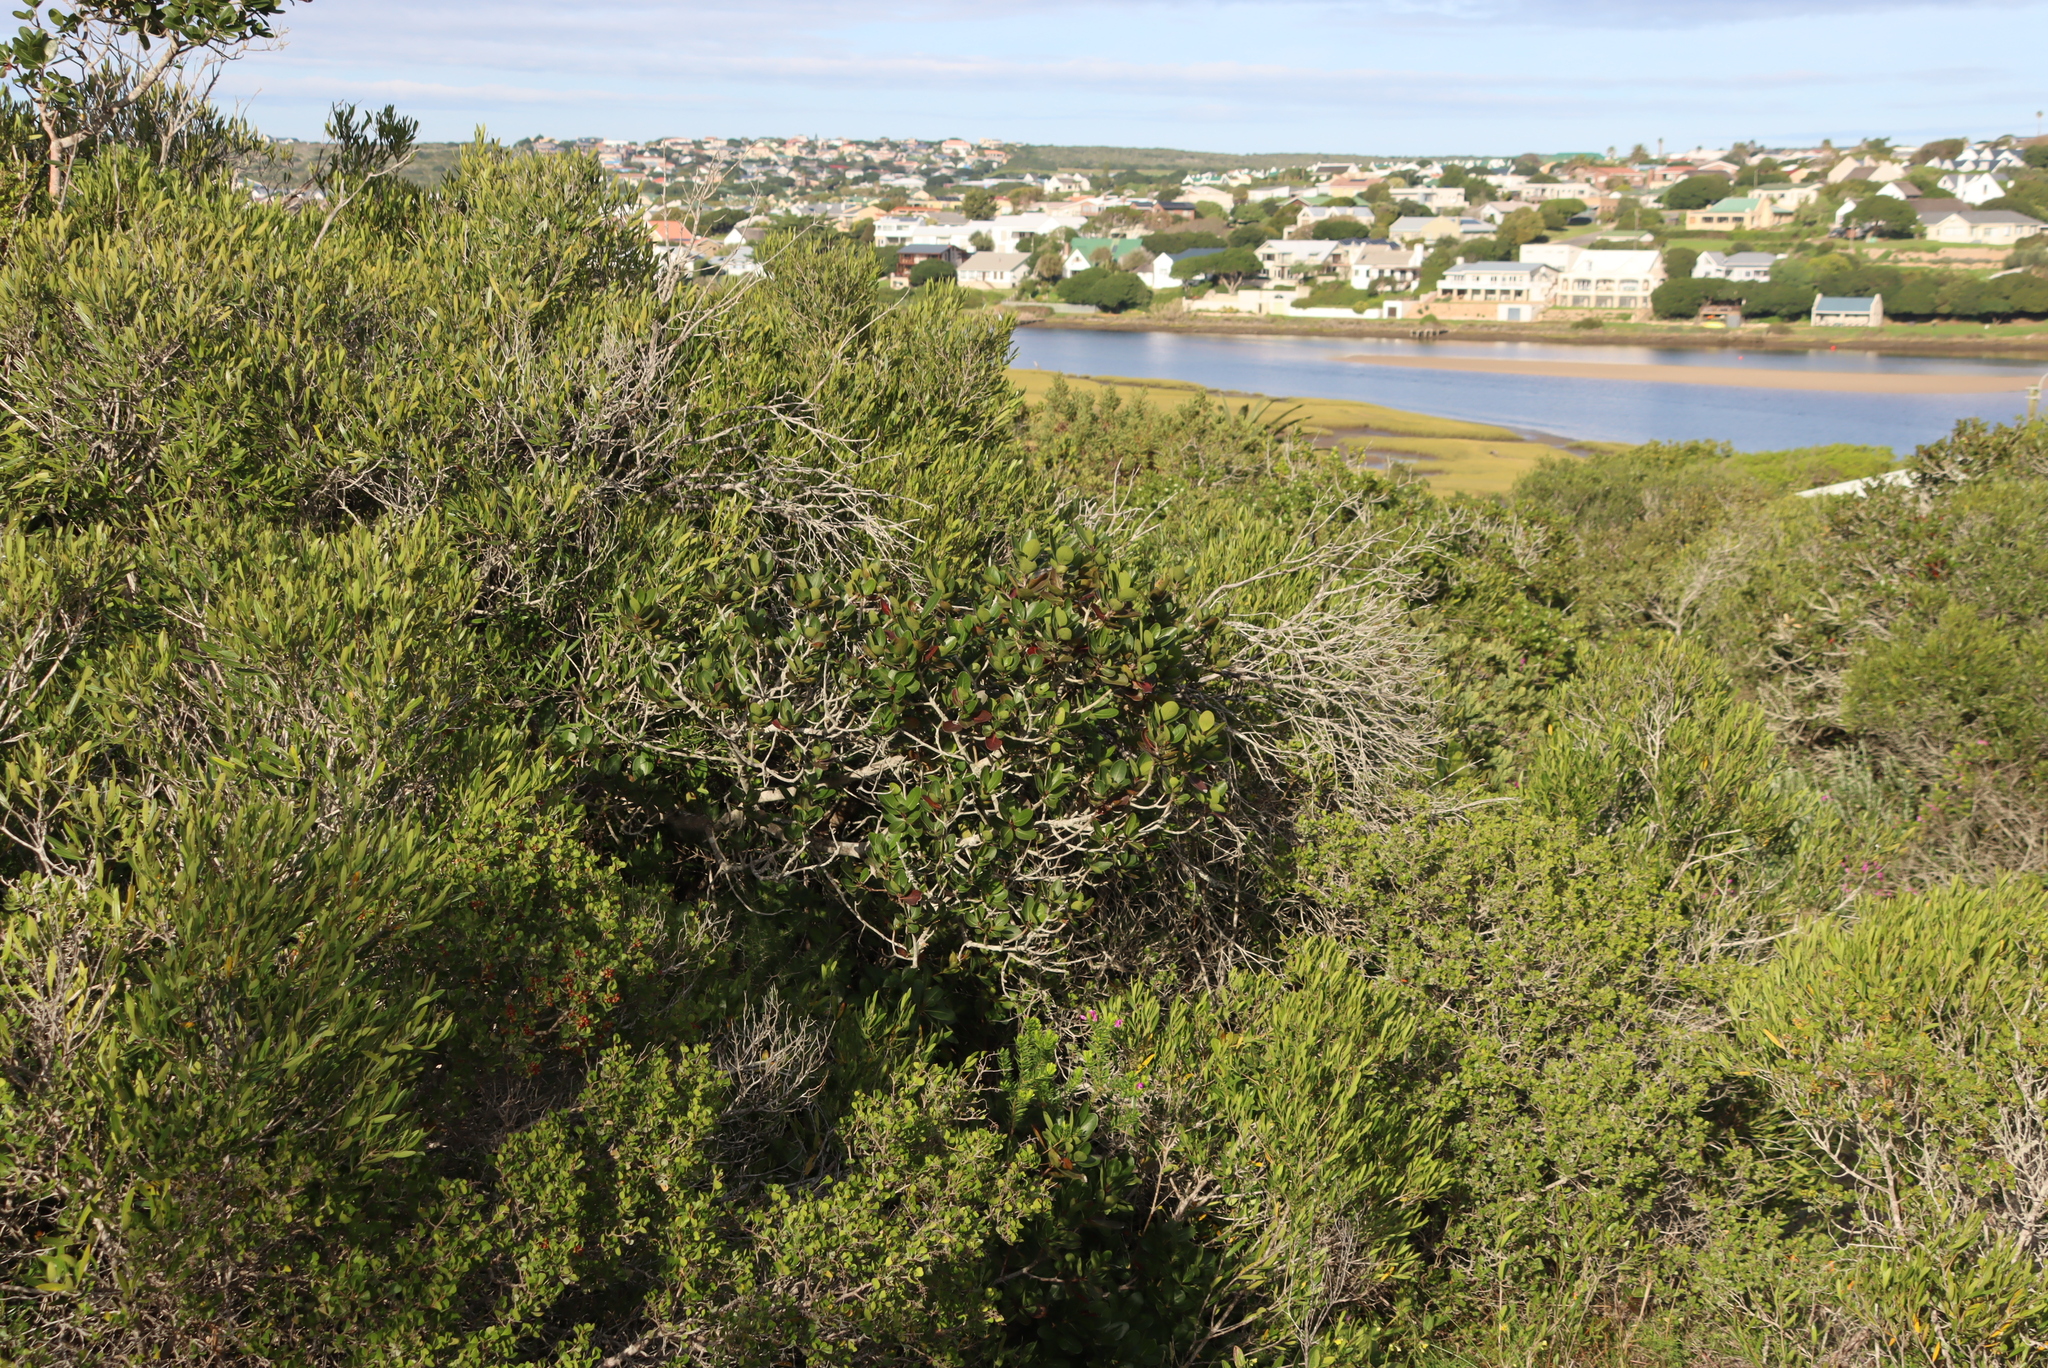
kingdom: Plantae
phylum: Tracheophyta
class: Magnoliopsida
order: Ericales
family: Sapotaceae
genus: Sideroxylon
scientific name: Sideroxylon inerme
